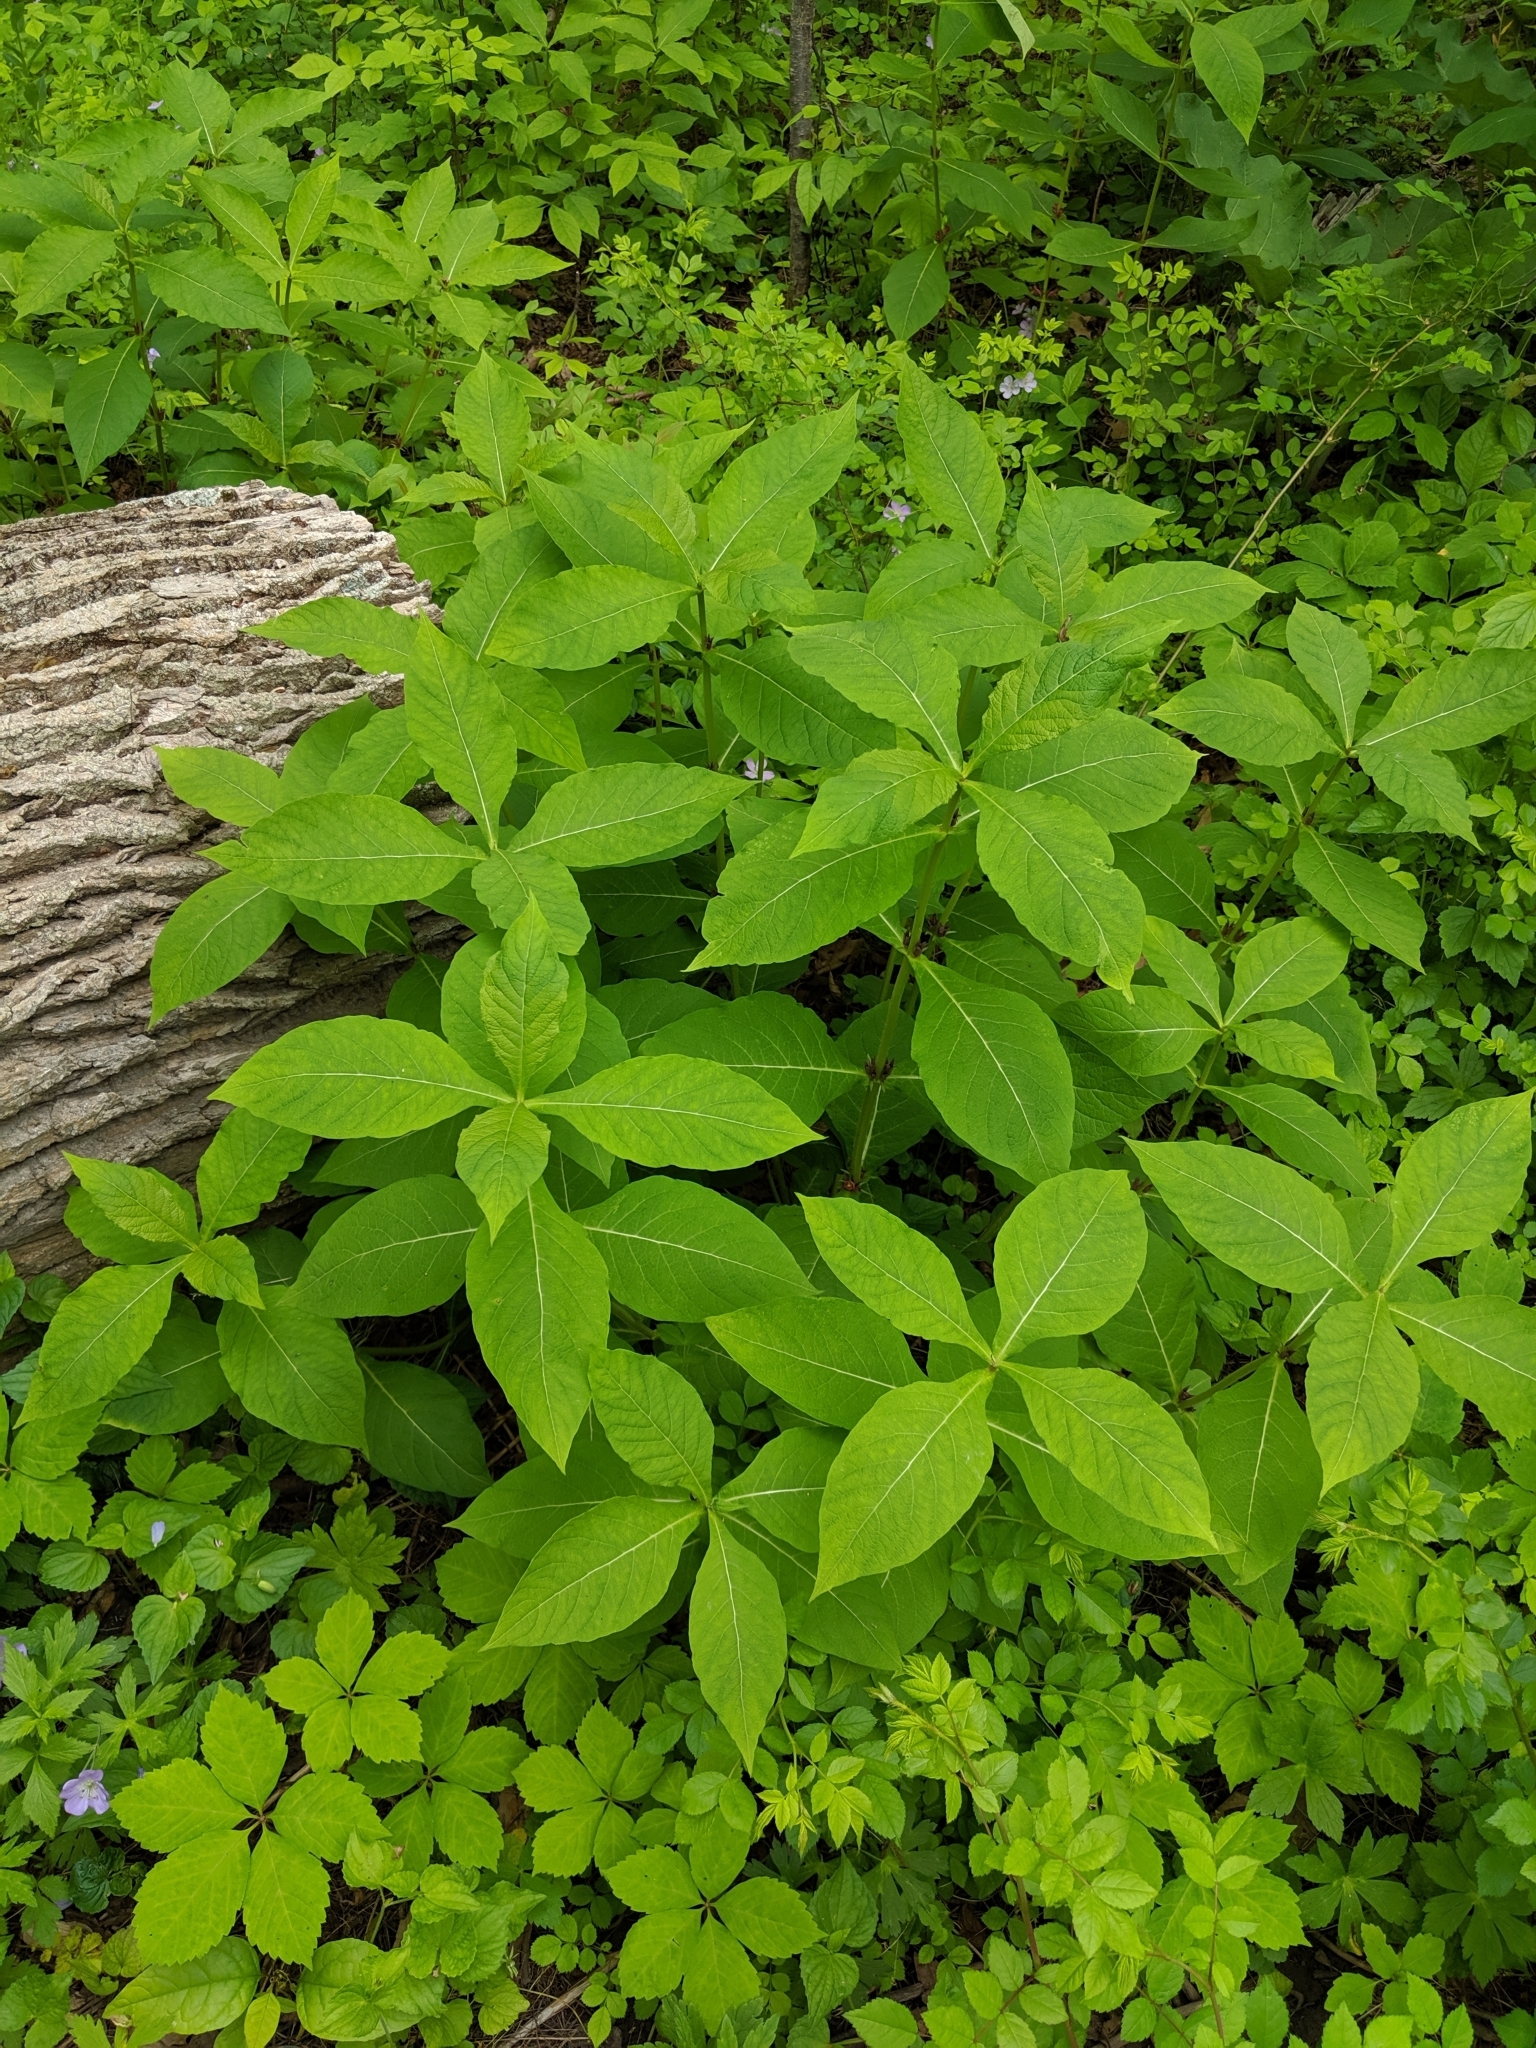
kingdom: Plantae
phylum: Tracheophyta
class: Magnoliopsida
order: Dipsacales
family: Caprifoliaceae
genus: Triosteum
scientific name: Triosteum aurantiacum
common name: Coffee tinker's-weed
